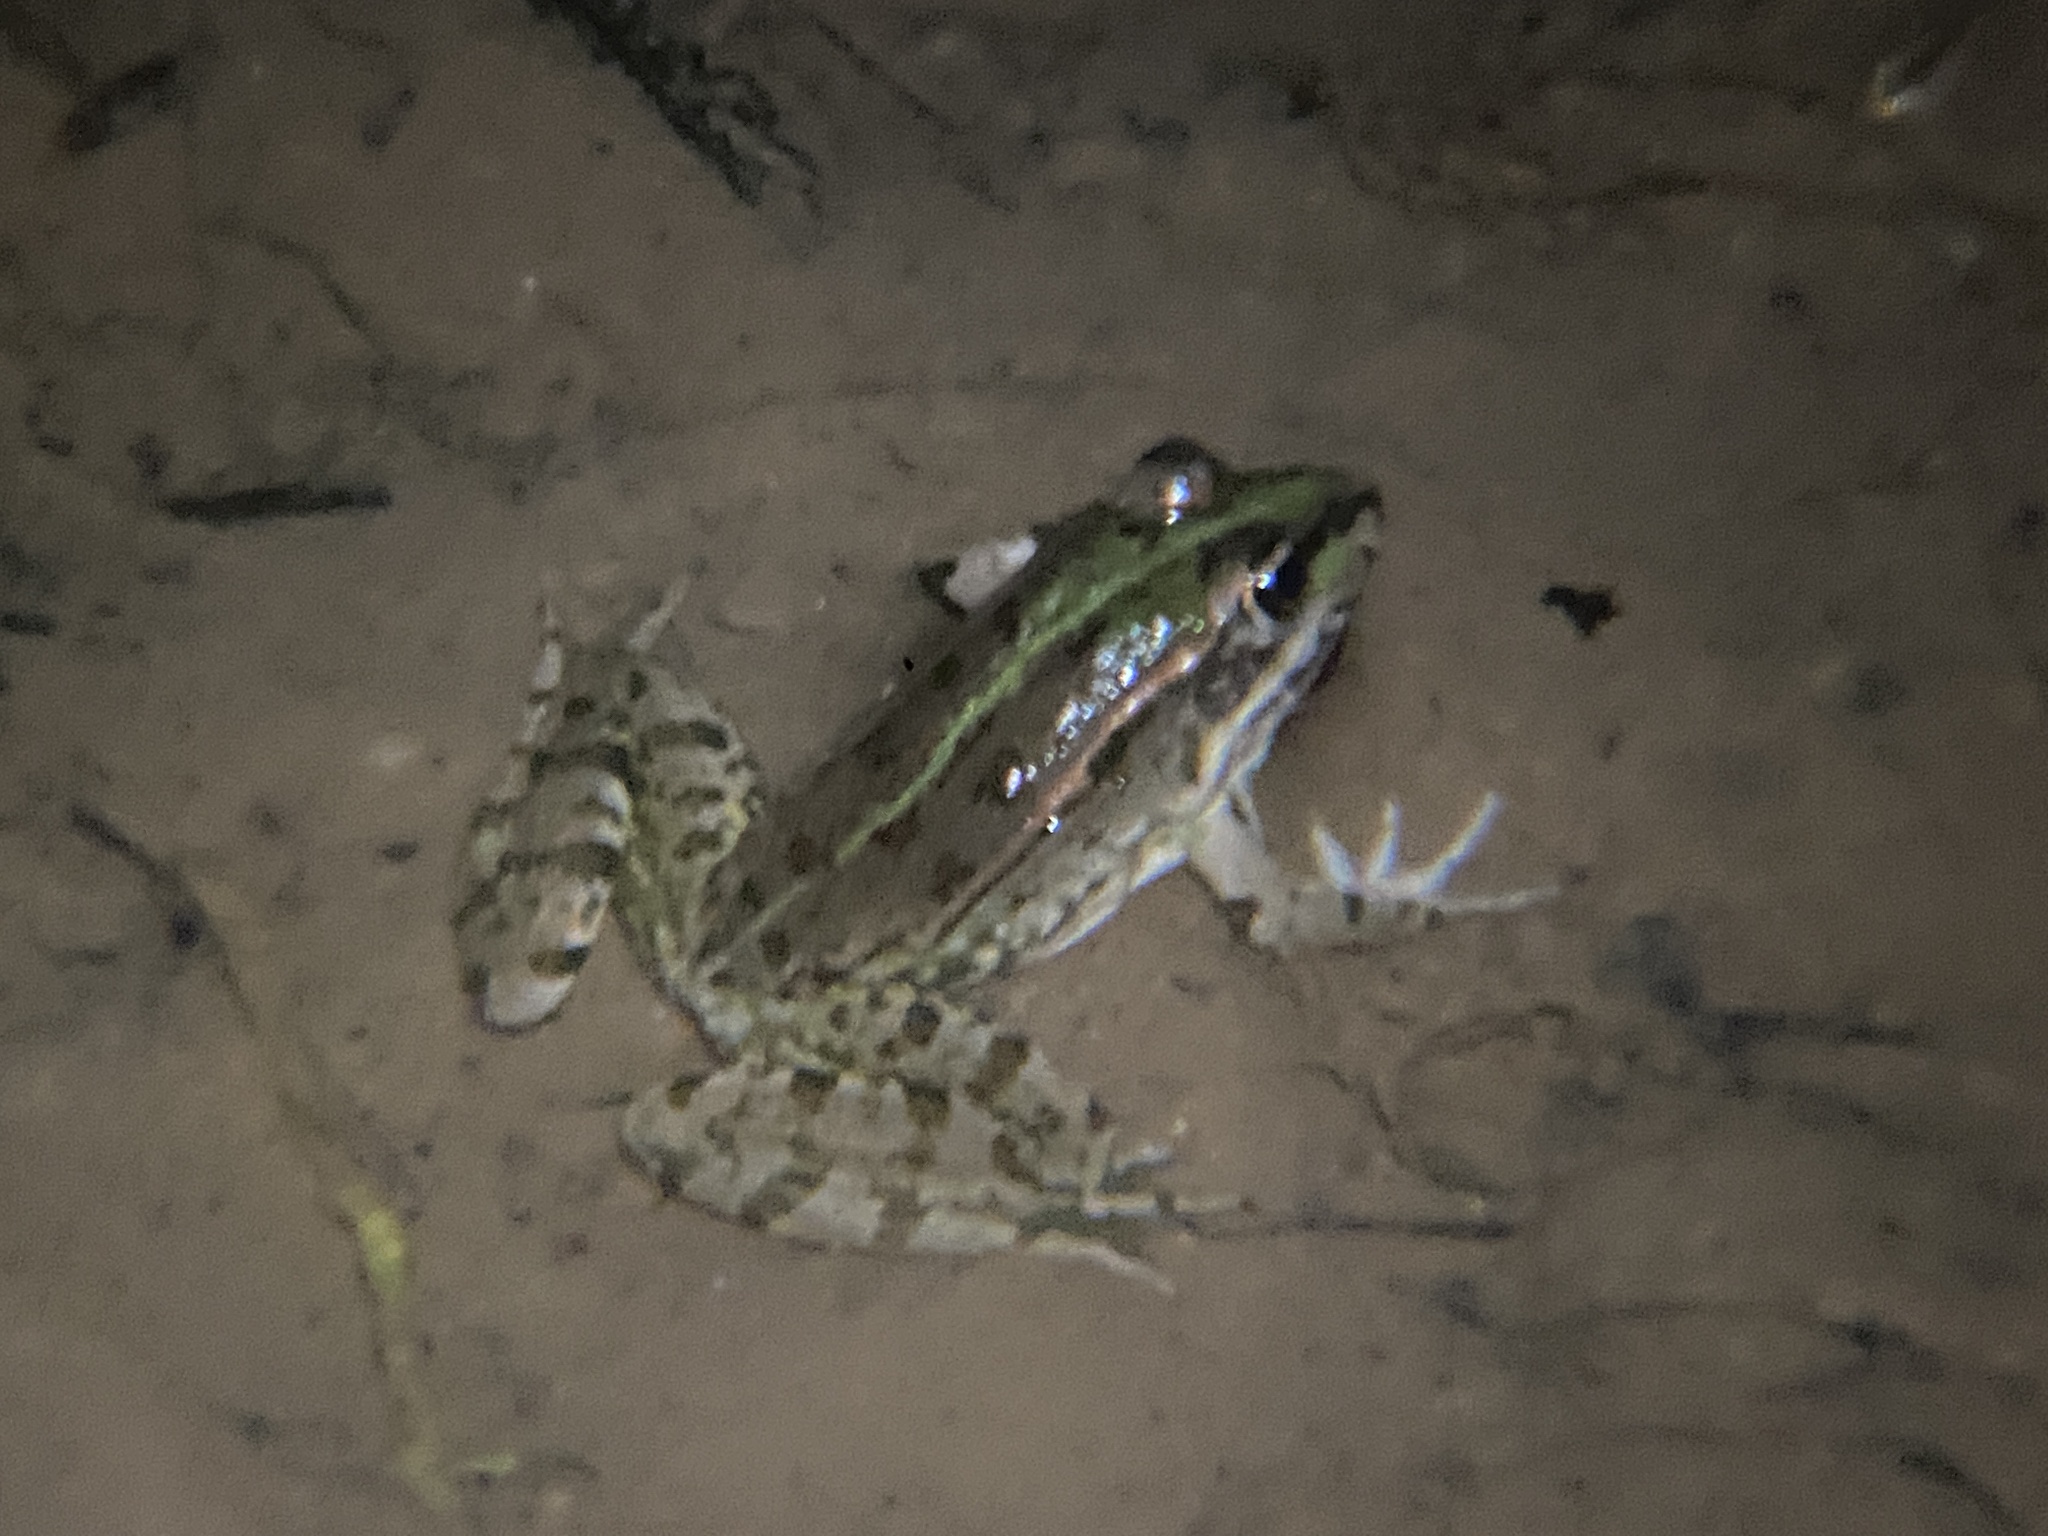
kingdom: Animalia
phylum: Chordata
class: Amphibia
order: Anura
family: Ranidae
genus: Pelophylax
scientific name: Pelophylax perezi
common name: Perez's frog
